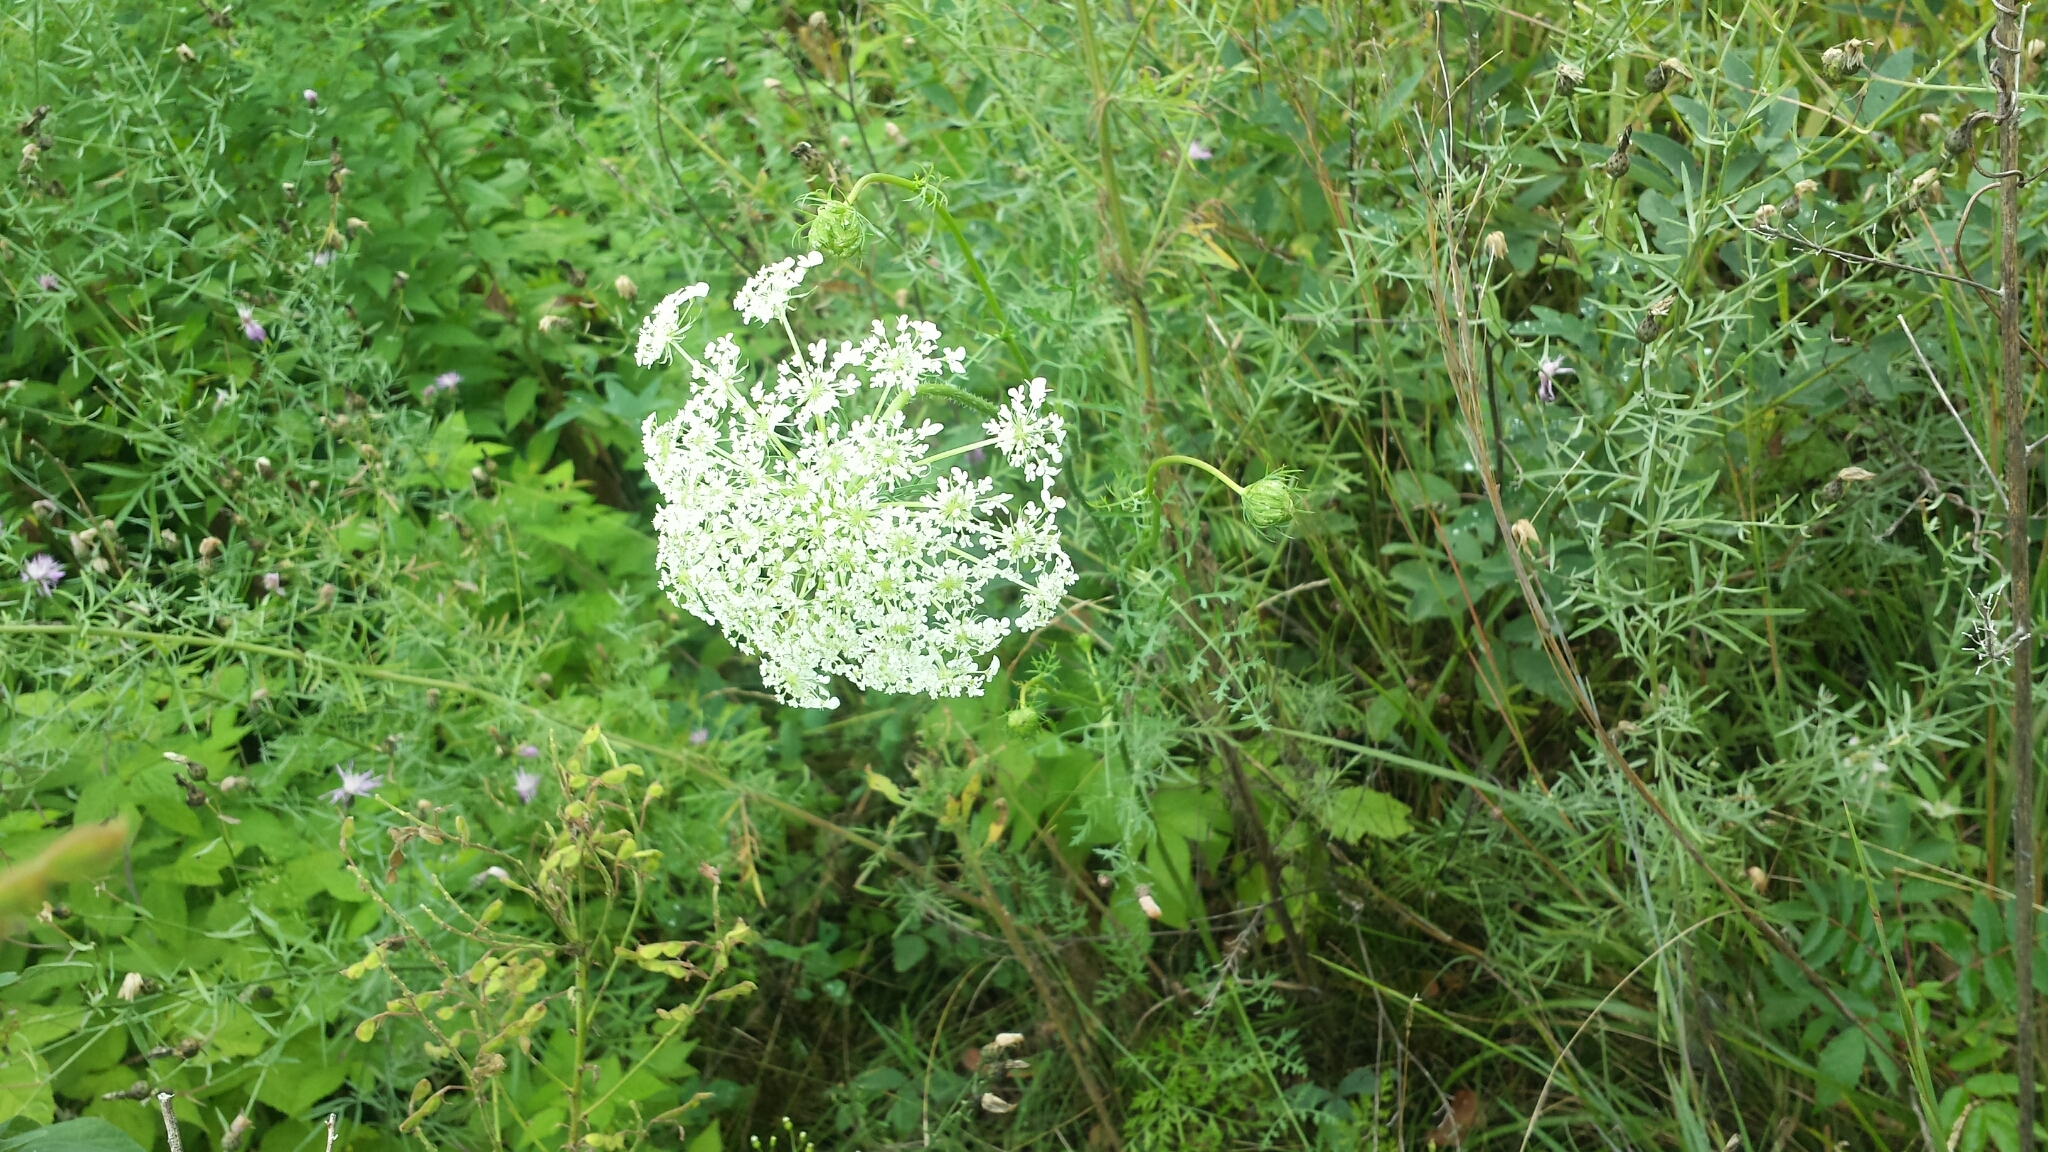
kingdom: Plantae
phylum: Tracheophyta
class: Magnoliopsida
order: Apiales
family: Apiaceae
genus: Daucus
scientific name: Daucus carota
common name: Wild carrot
